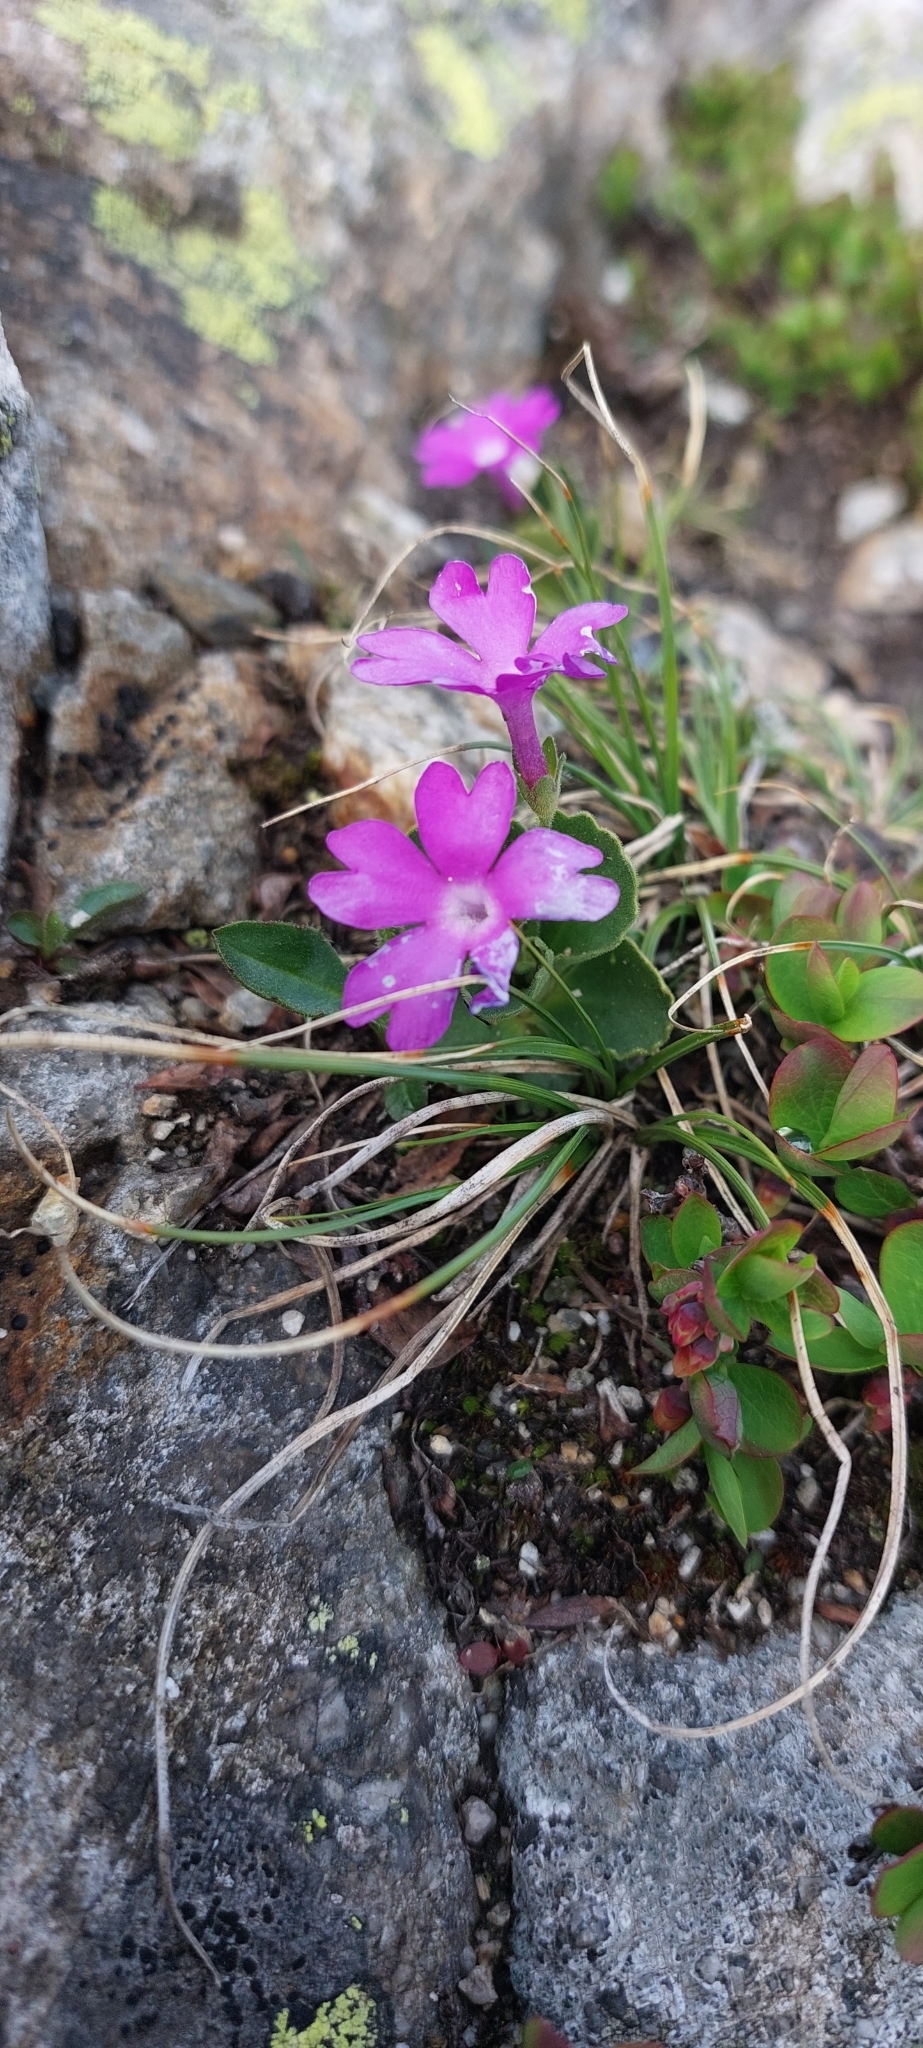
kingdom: Plantae
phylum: Tracheophyta
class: Magnoliopsida
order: Ericales
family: Primulaceae
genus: Primula
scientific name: Primula hirsuta
